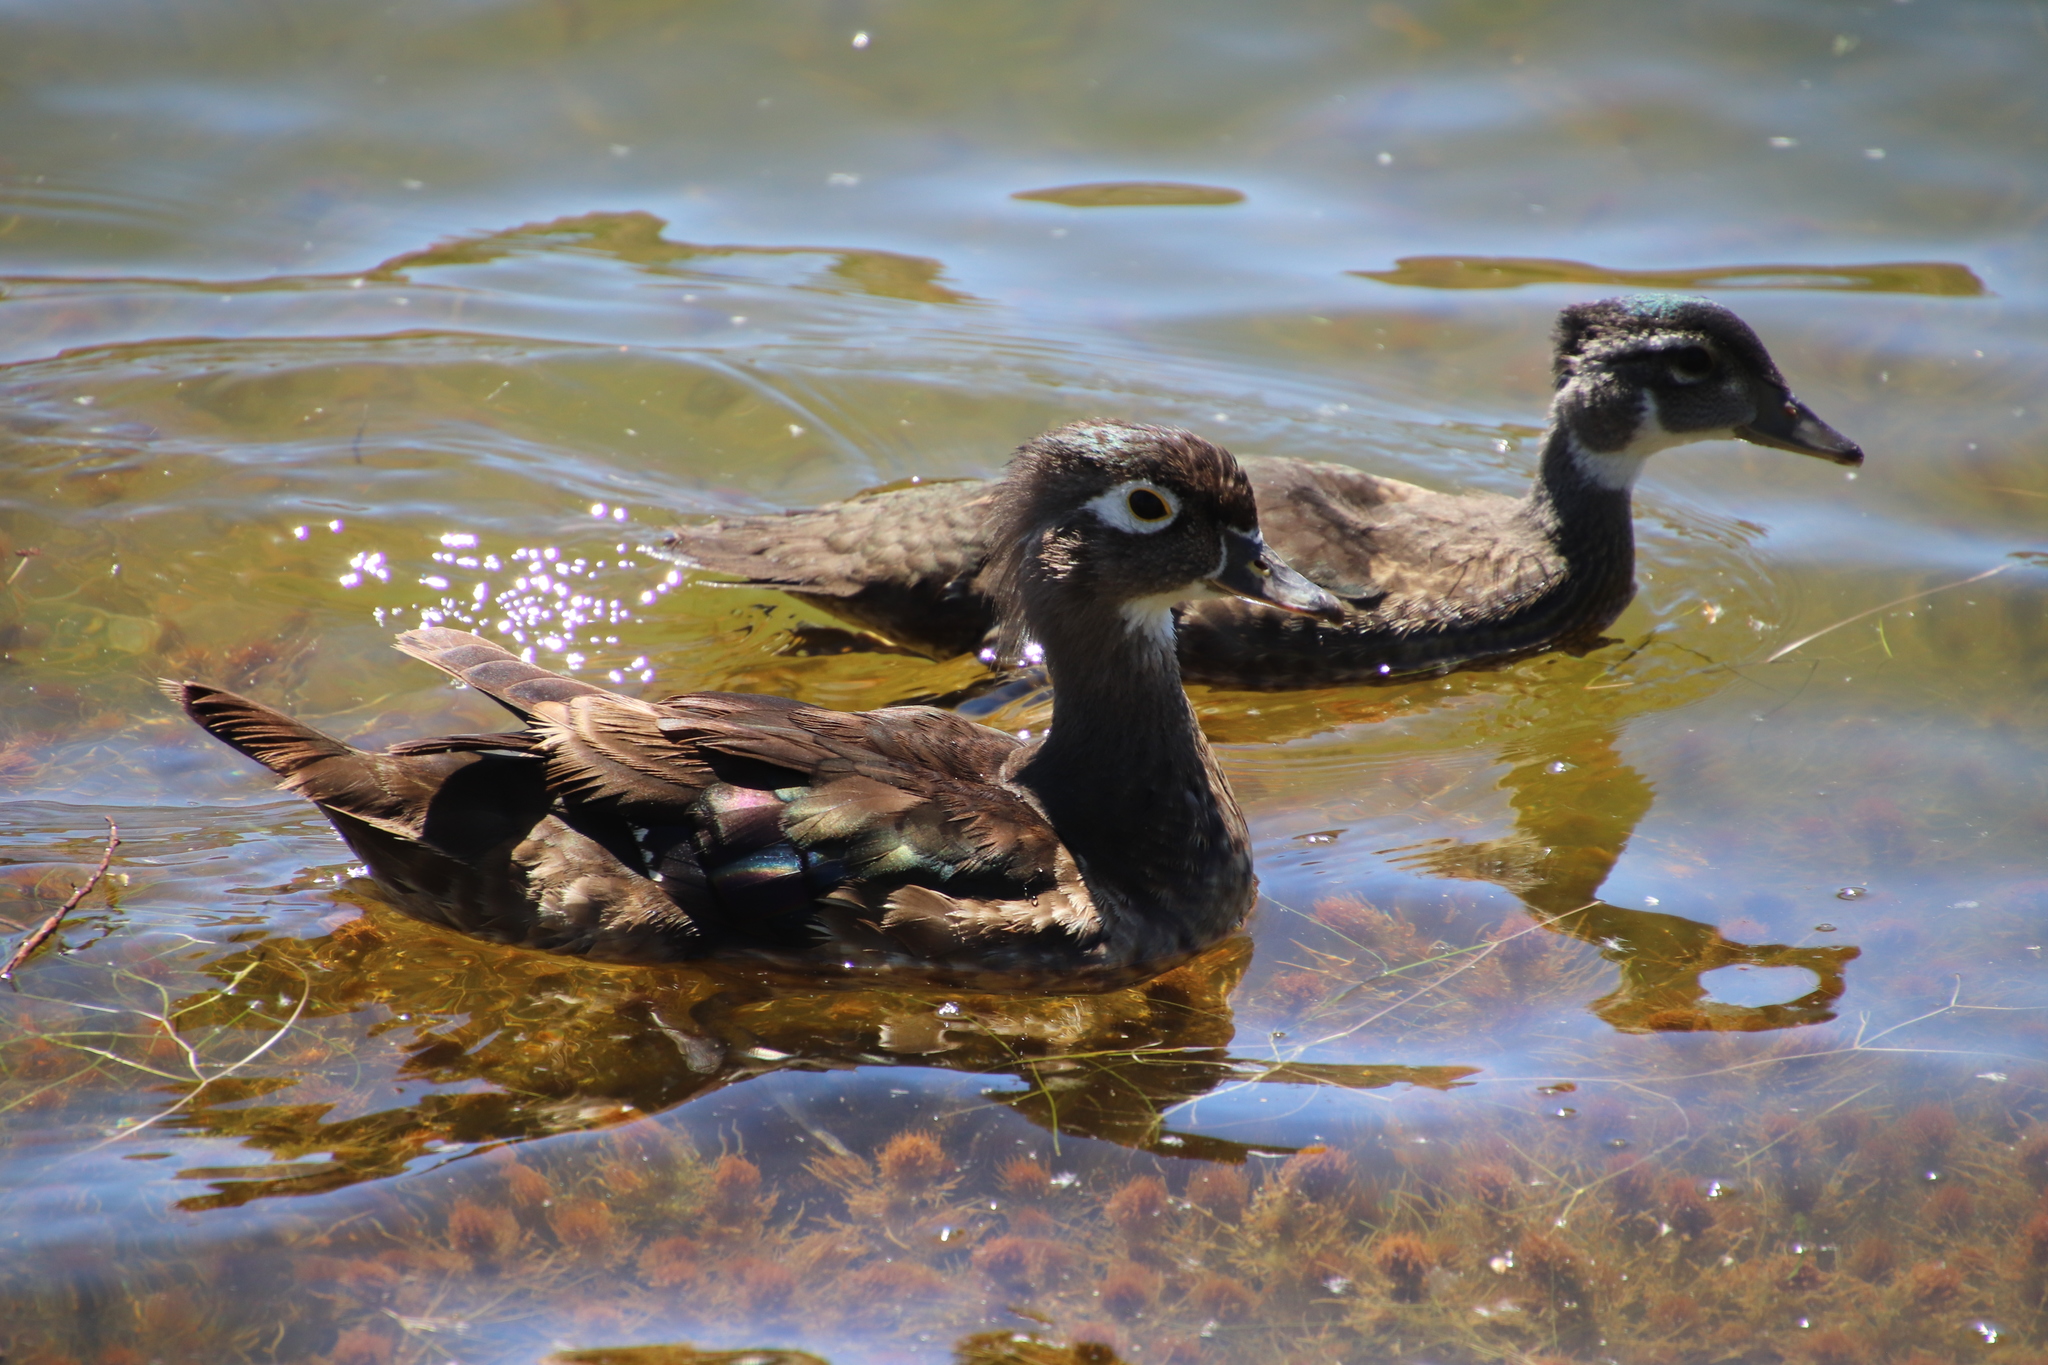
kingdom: Animalia
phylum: Chordata
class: Aves
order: Anseriformes
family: Anatidae
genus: Aix
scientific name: Aix sponsa
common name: Wood duck
